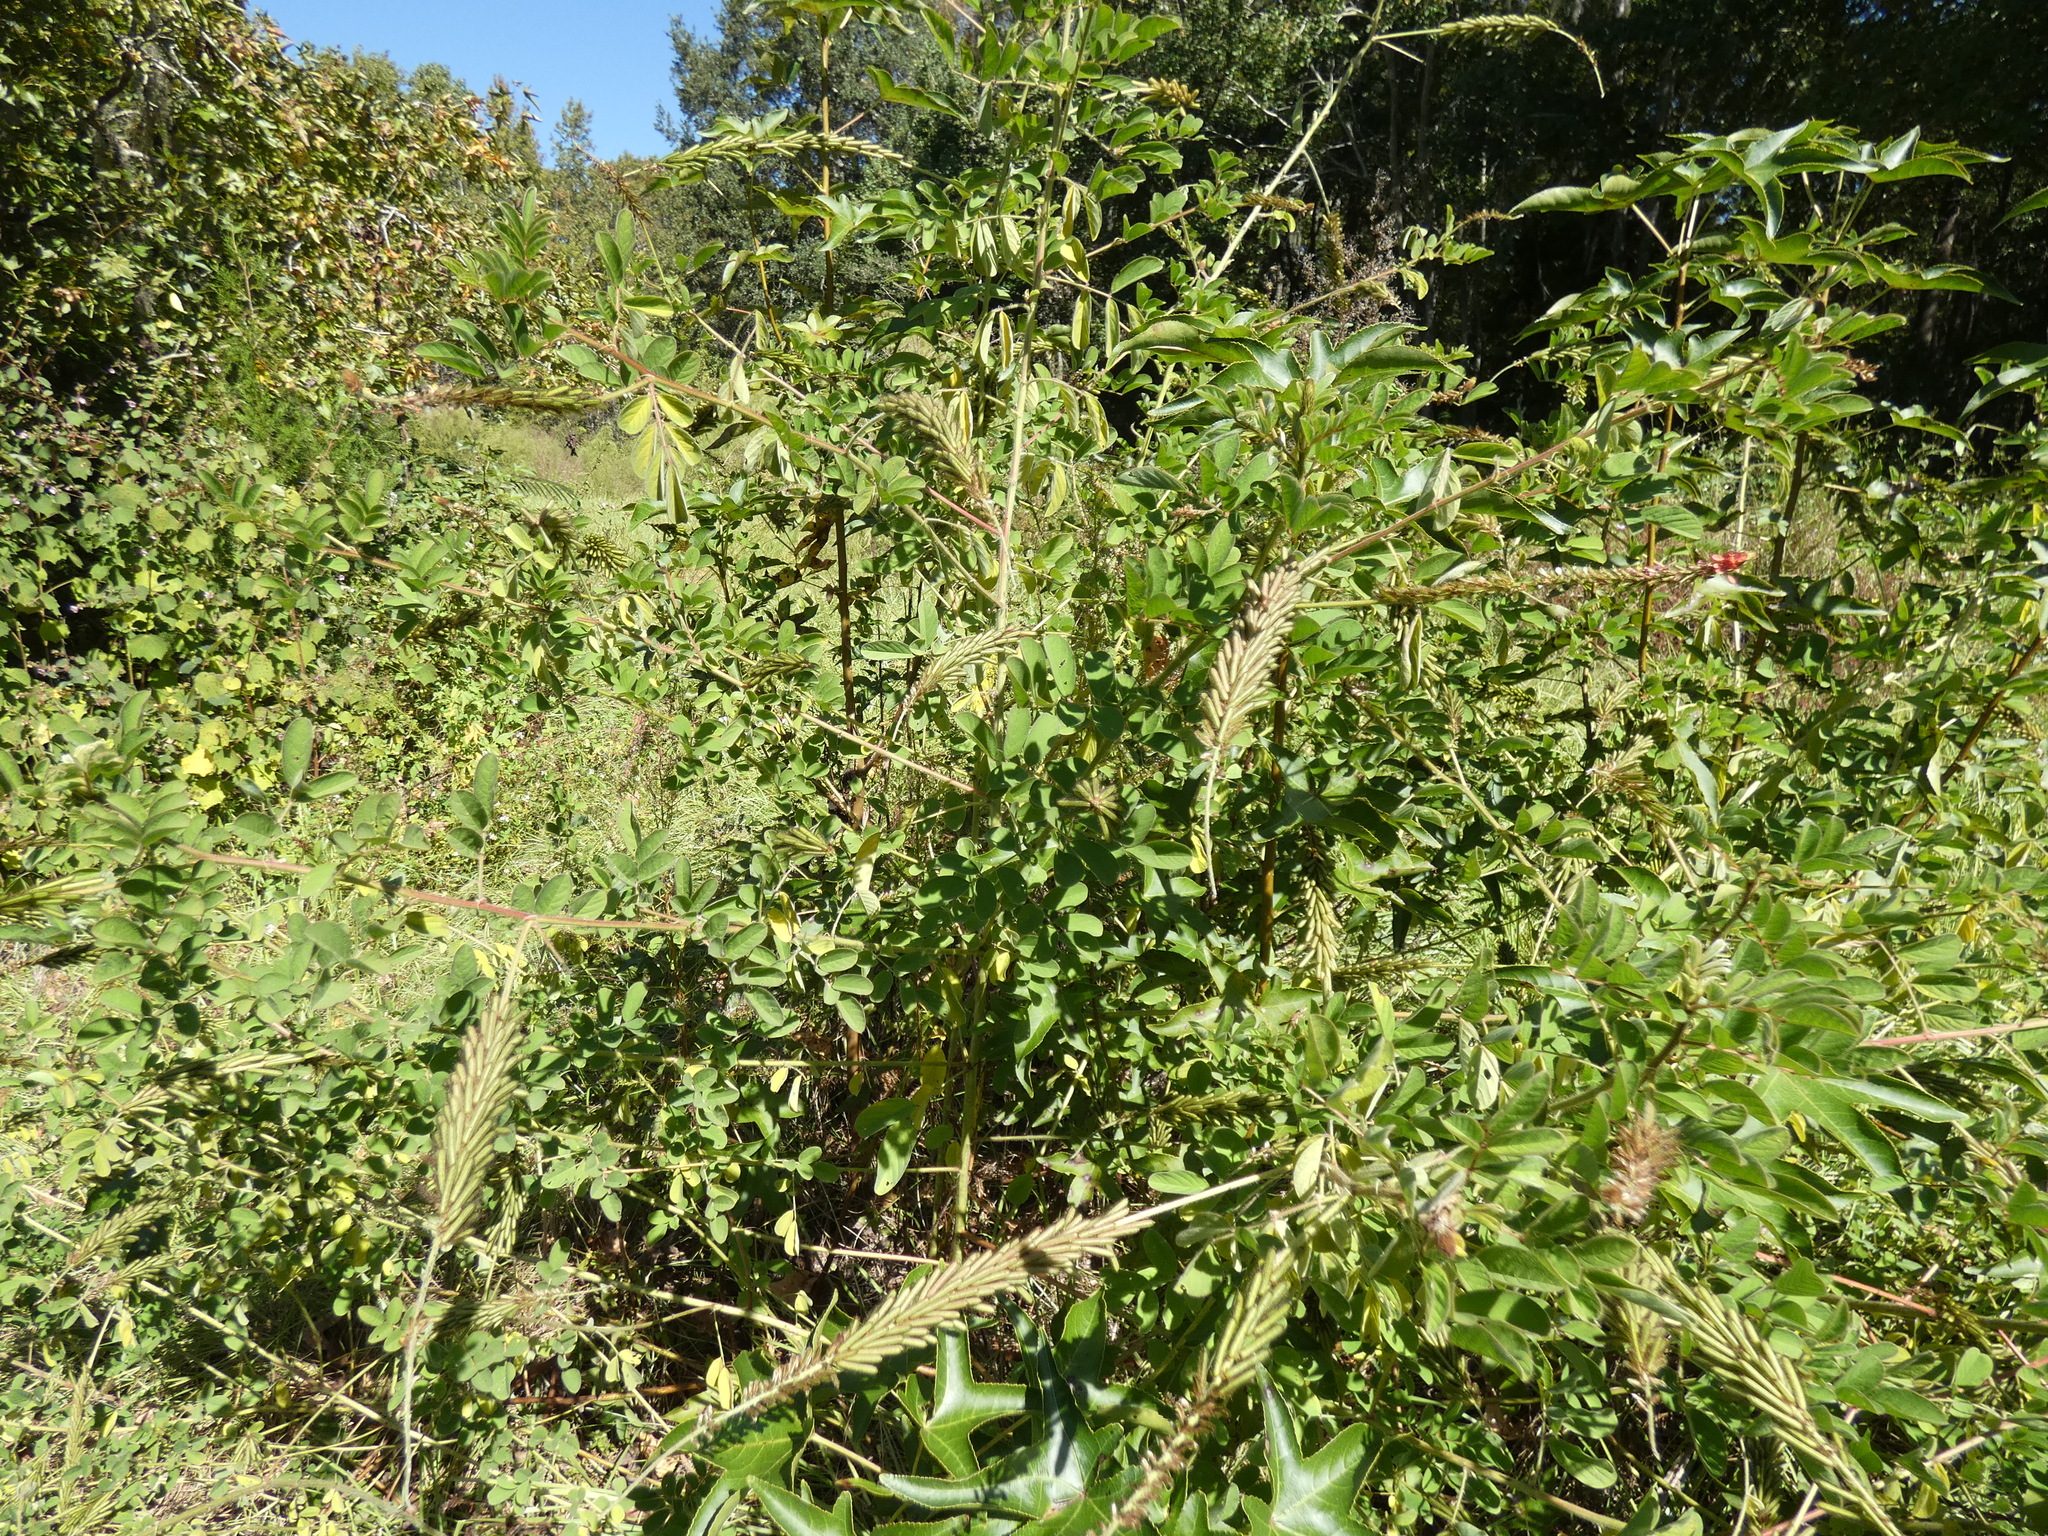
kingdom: Plantae
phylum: Tracheophyta
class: Magnoliopsida
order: Fabales
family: Fabaceae
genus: Indigofera
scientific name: Indigofera hirsuta
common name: Hairy indigo
